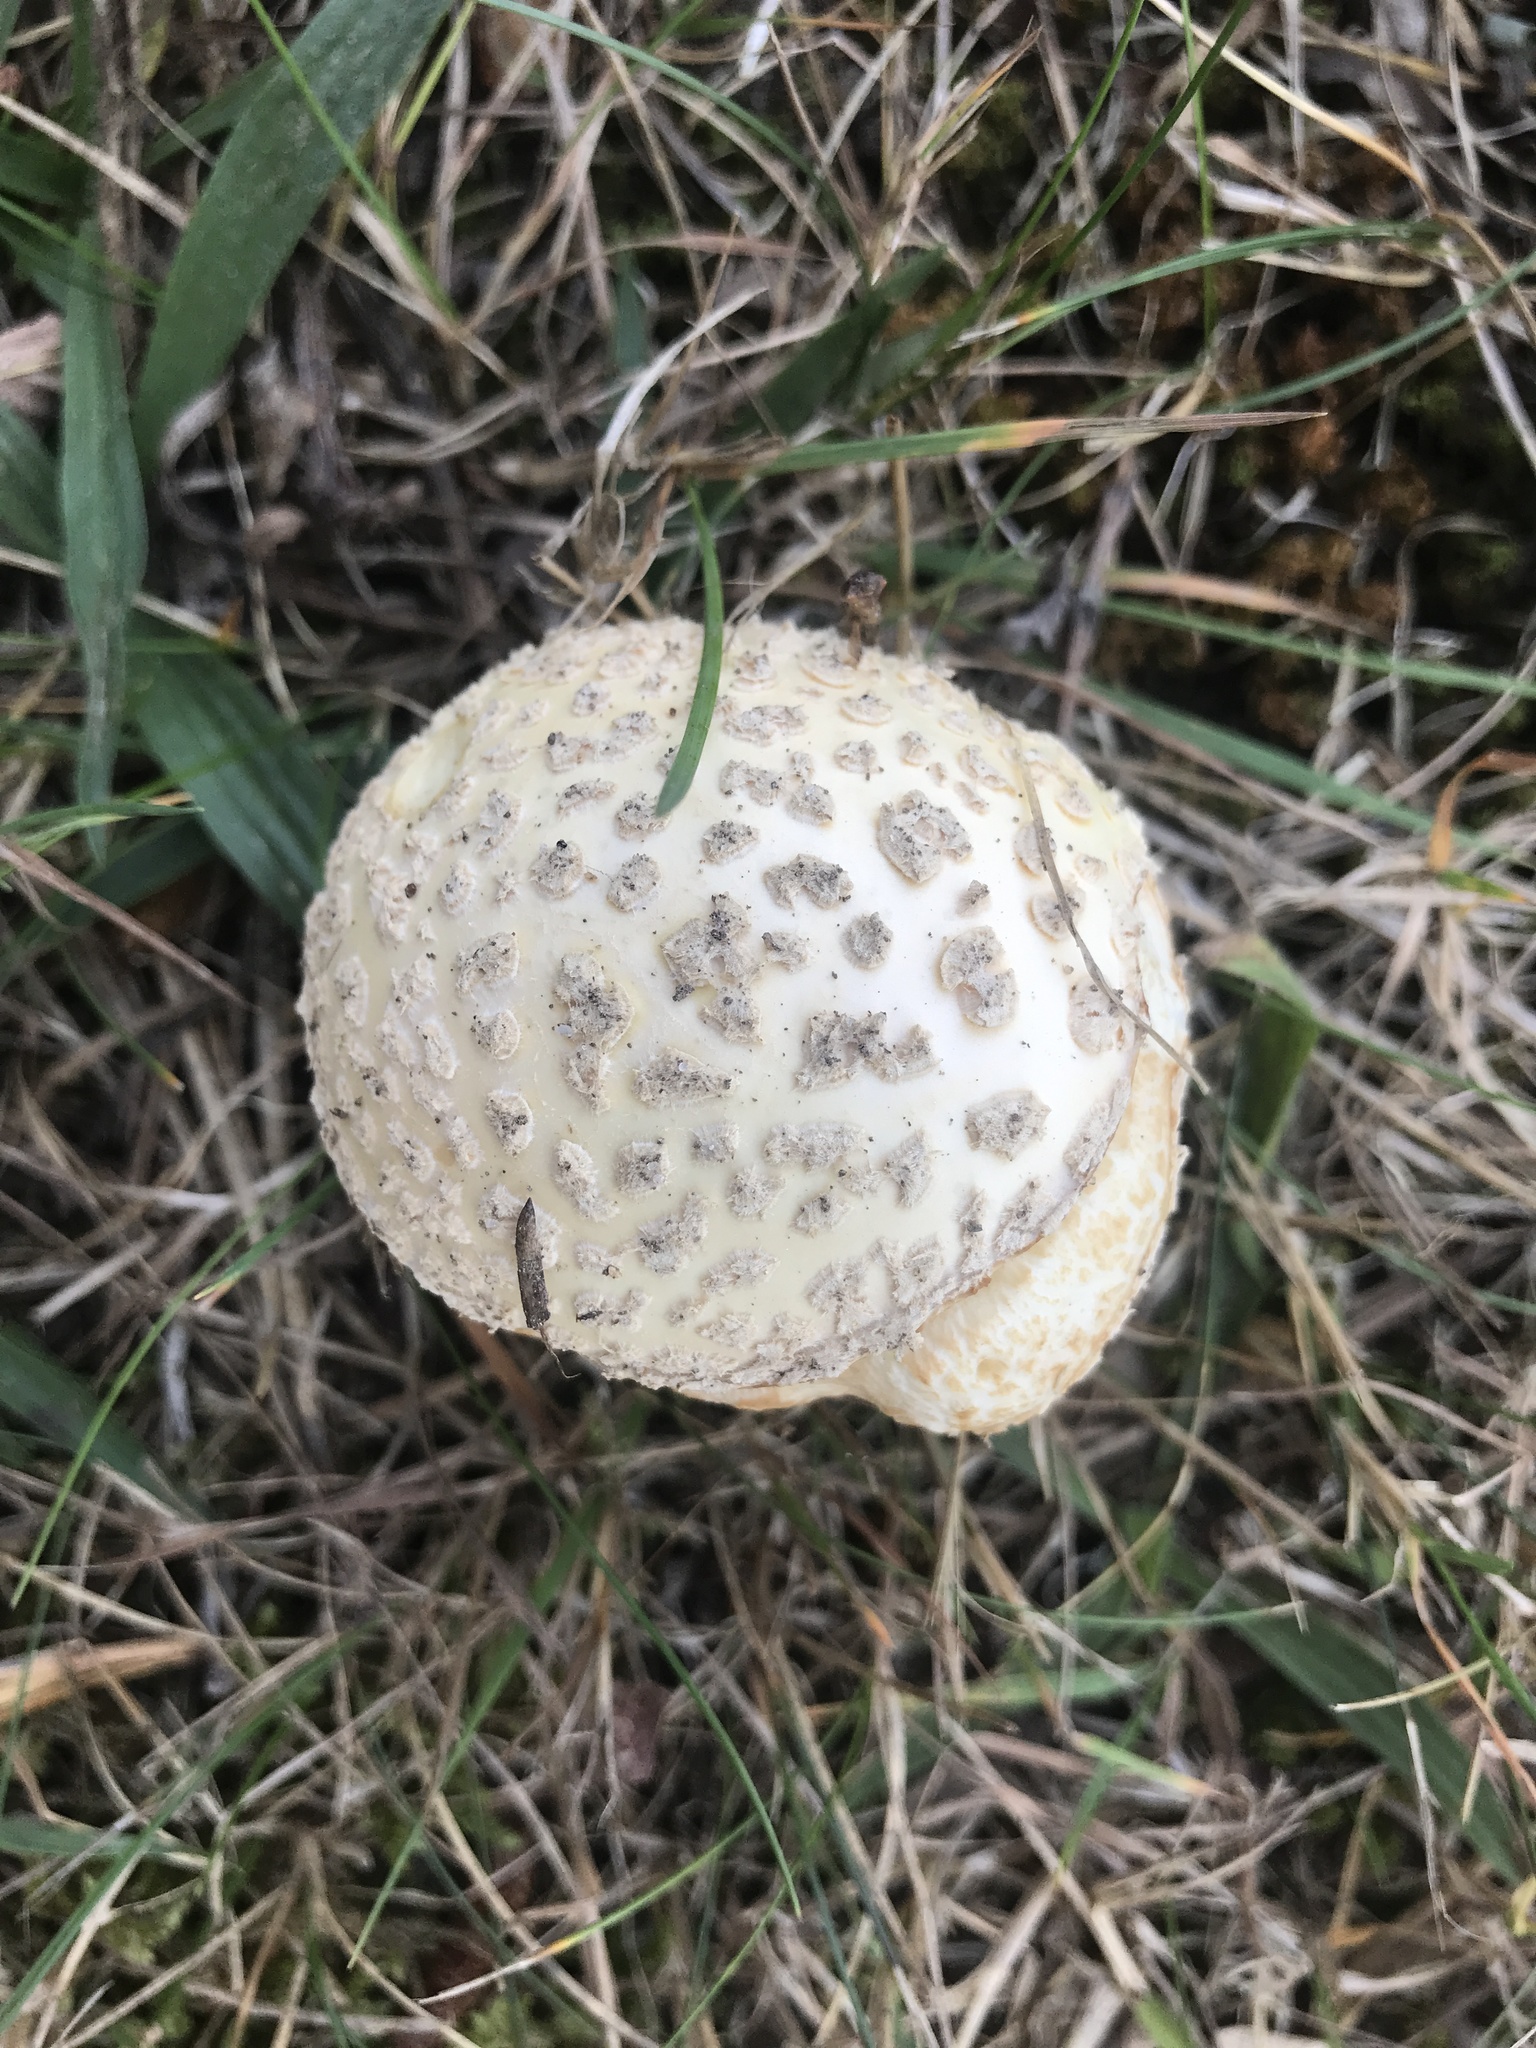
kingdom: Fungi
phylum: Basidiomycota
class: Agaricomycetes
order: Agaricales
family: Amanitaceae
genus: Amanita
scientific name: Amanita muscaria
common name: Fly agaric
